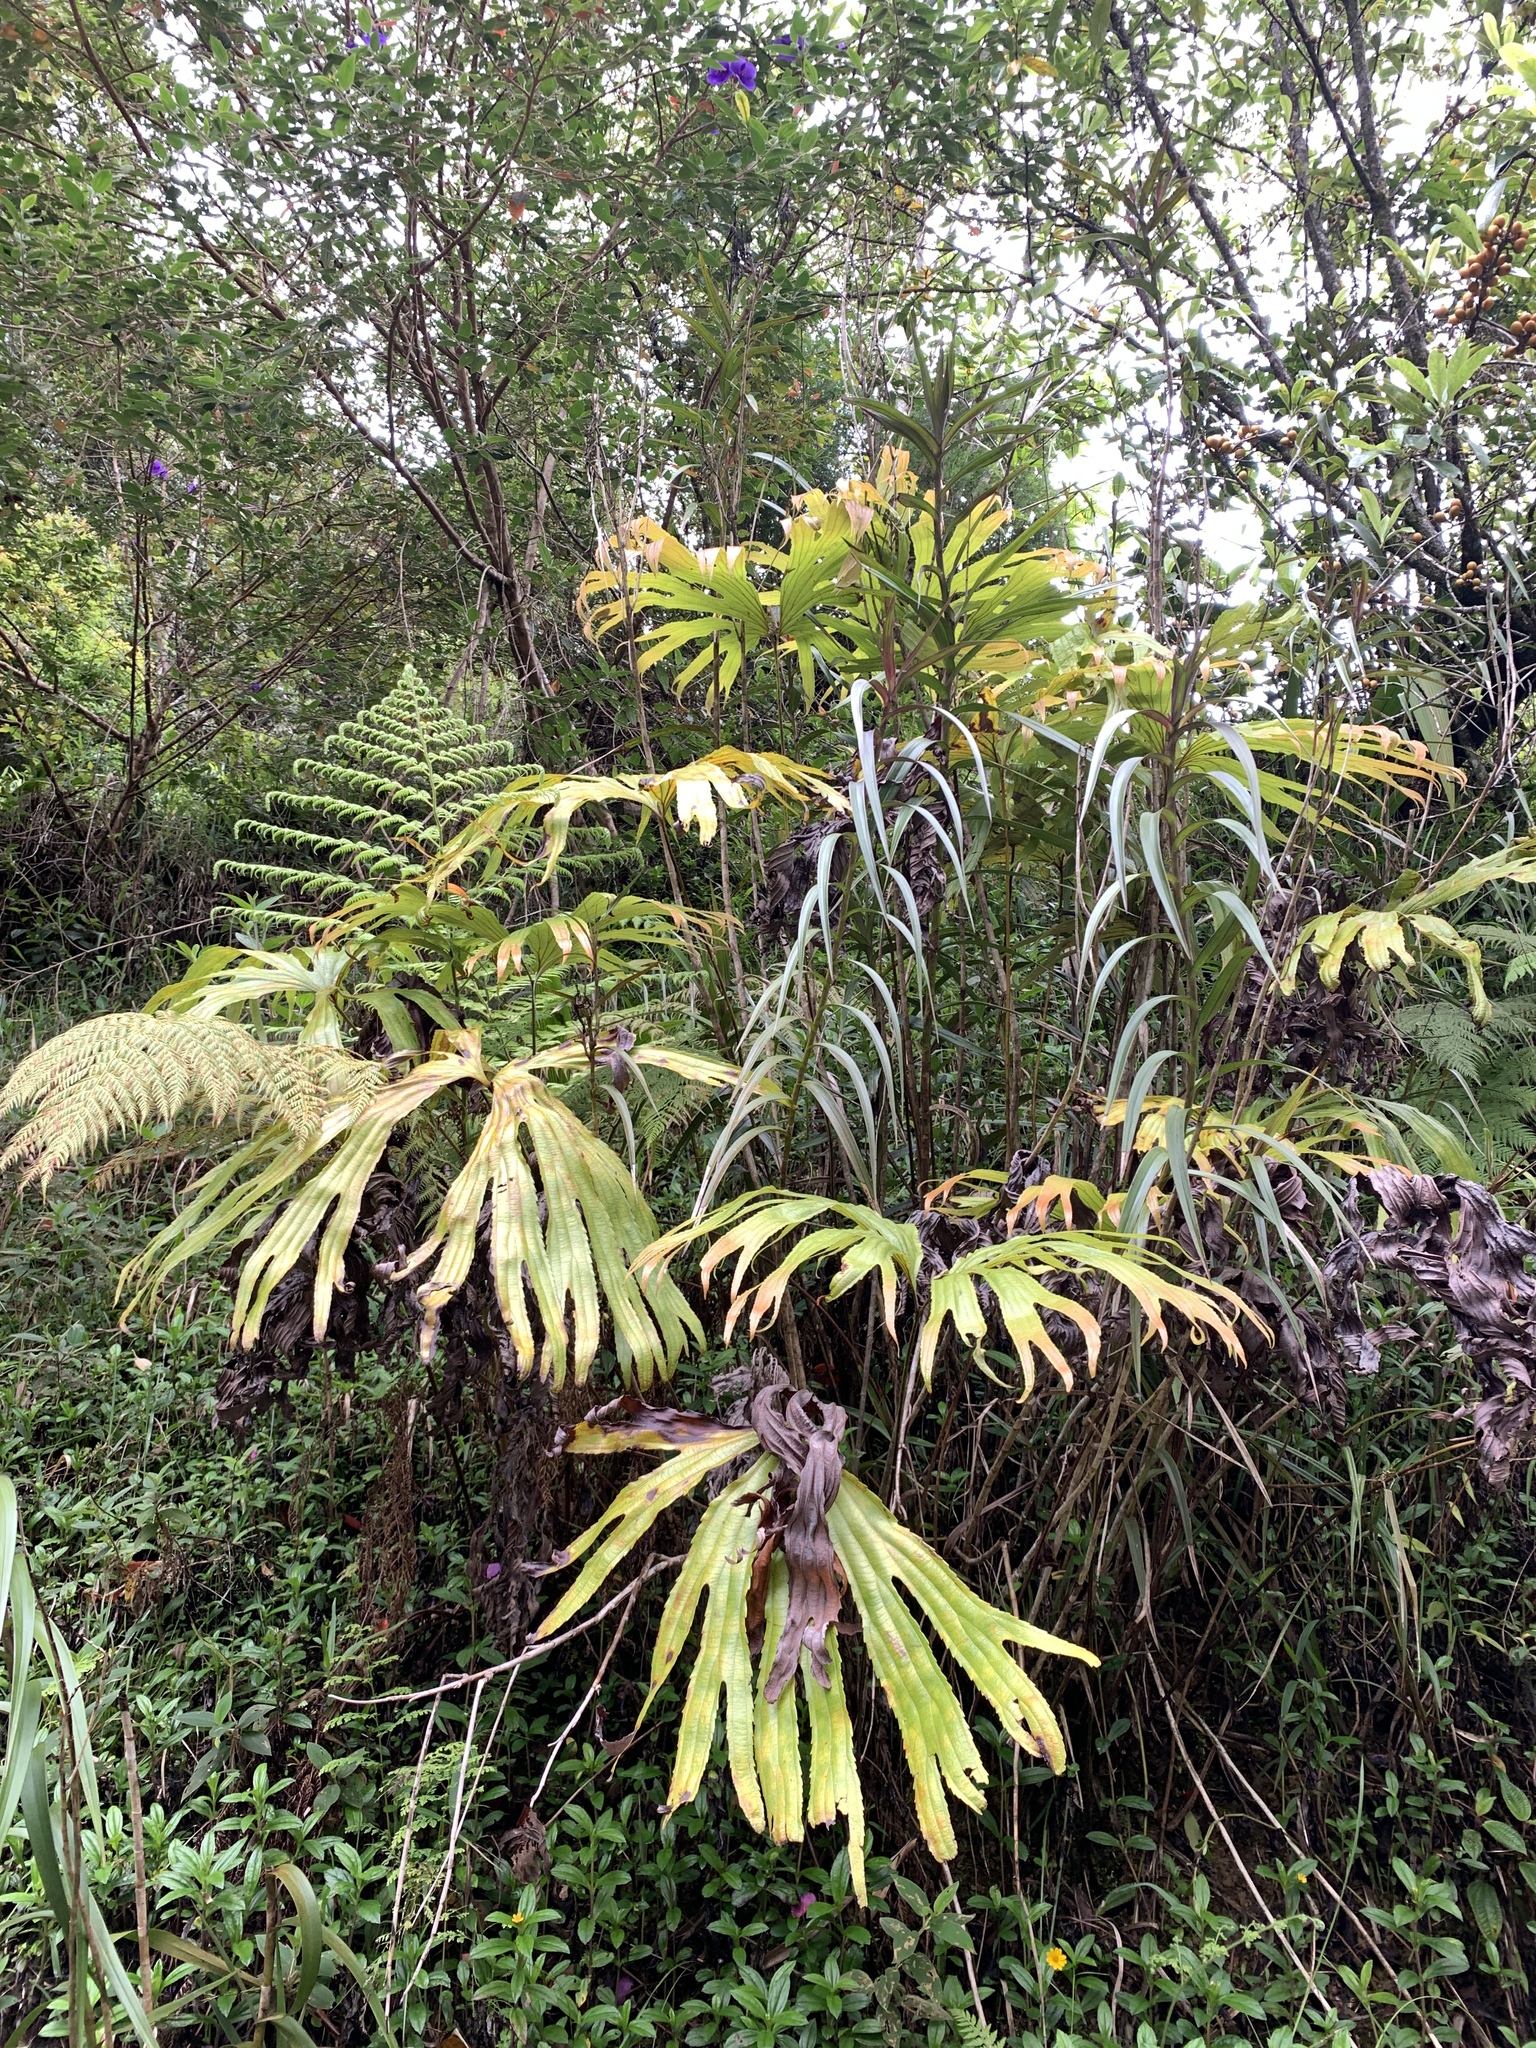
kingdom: Plantae
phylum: Tracheophyta
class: Polypodiopsida
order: Gleicheniales
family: Dipteridaceae
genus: Dipteris
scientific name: Dipteris conjugata
